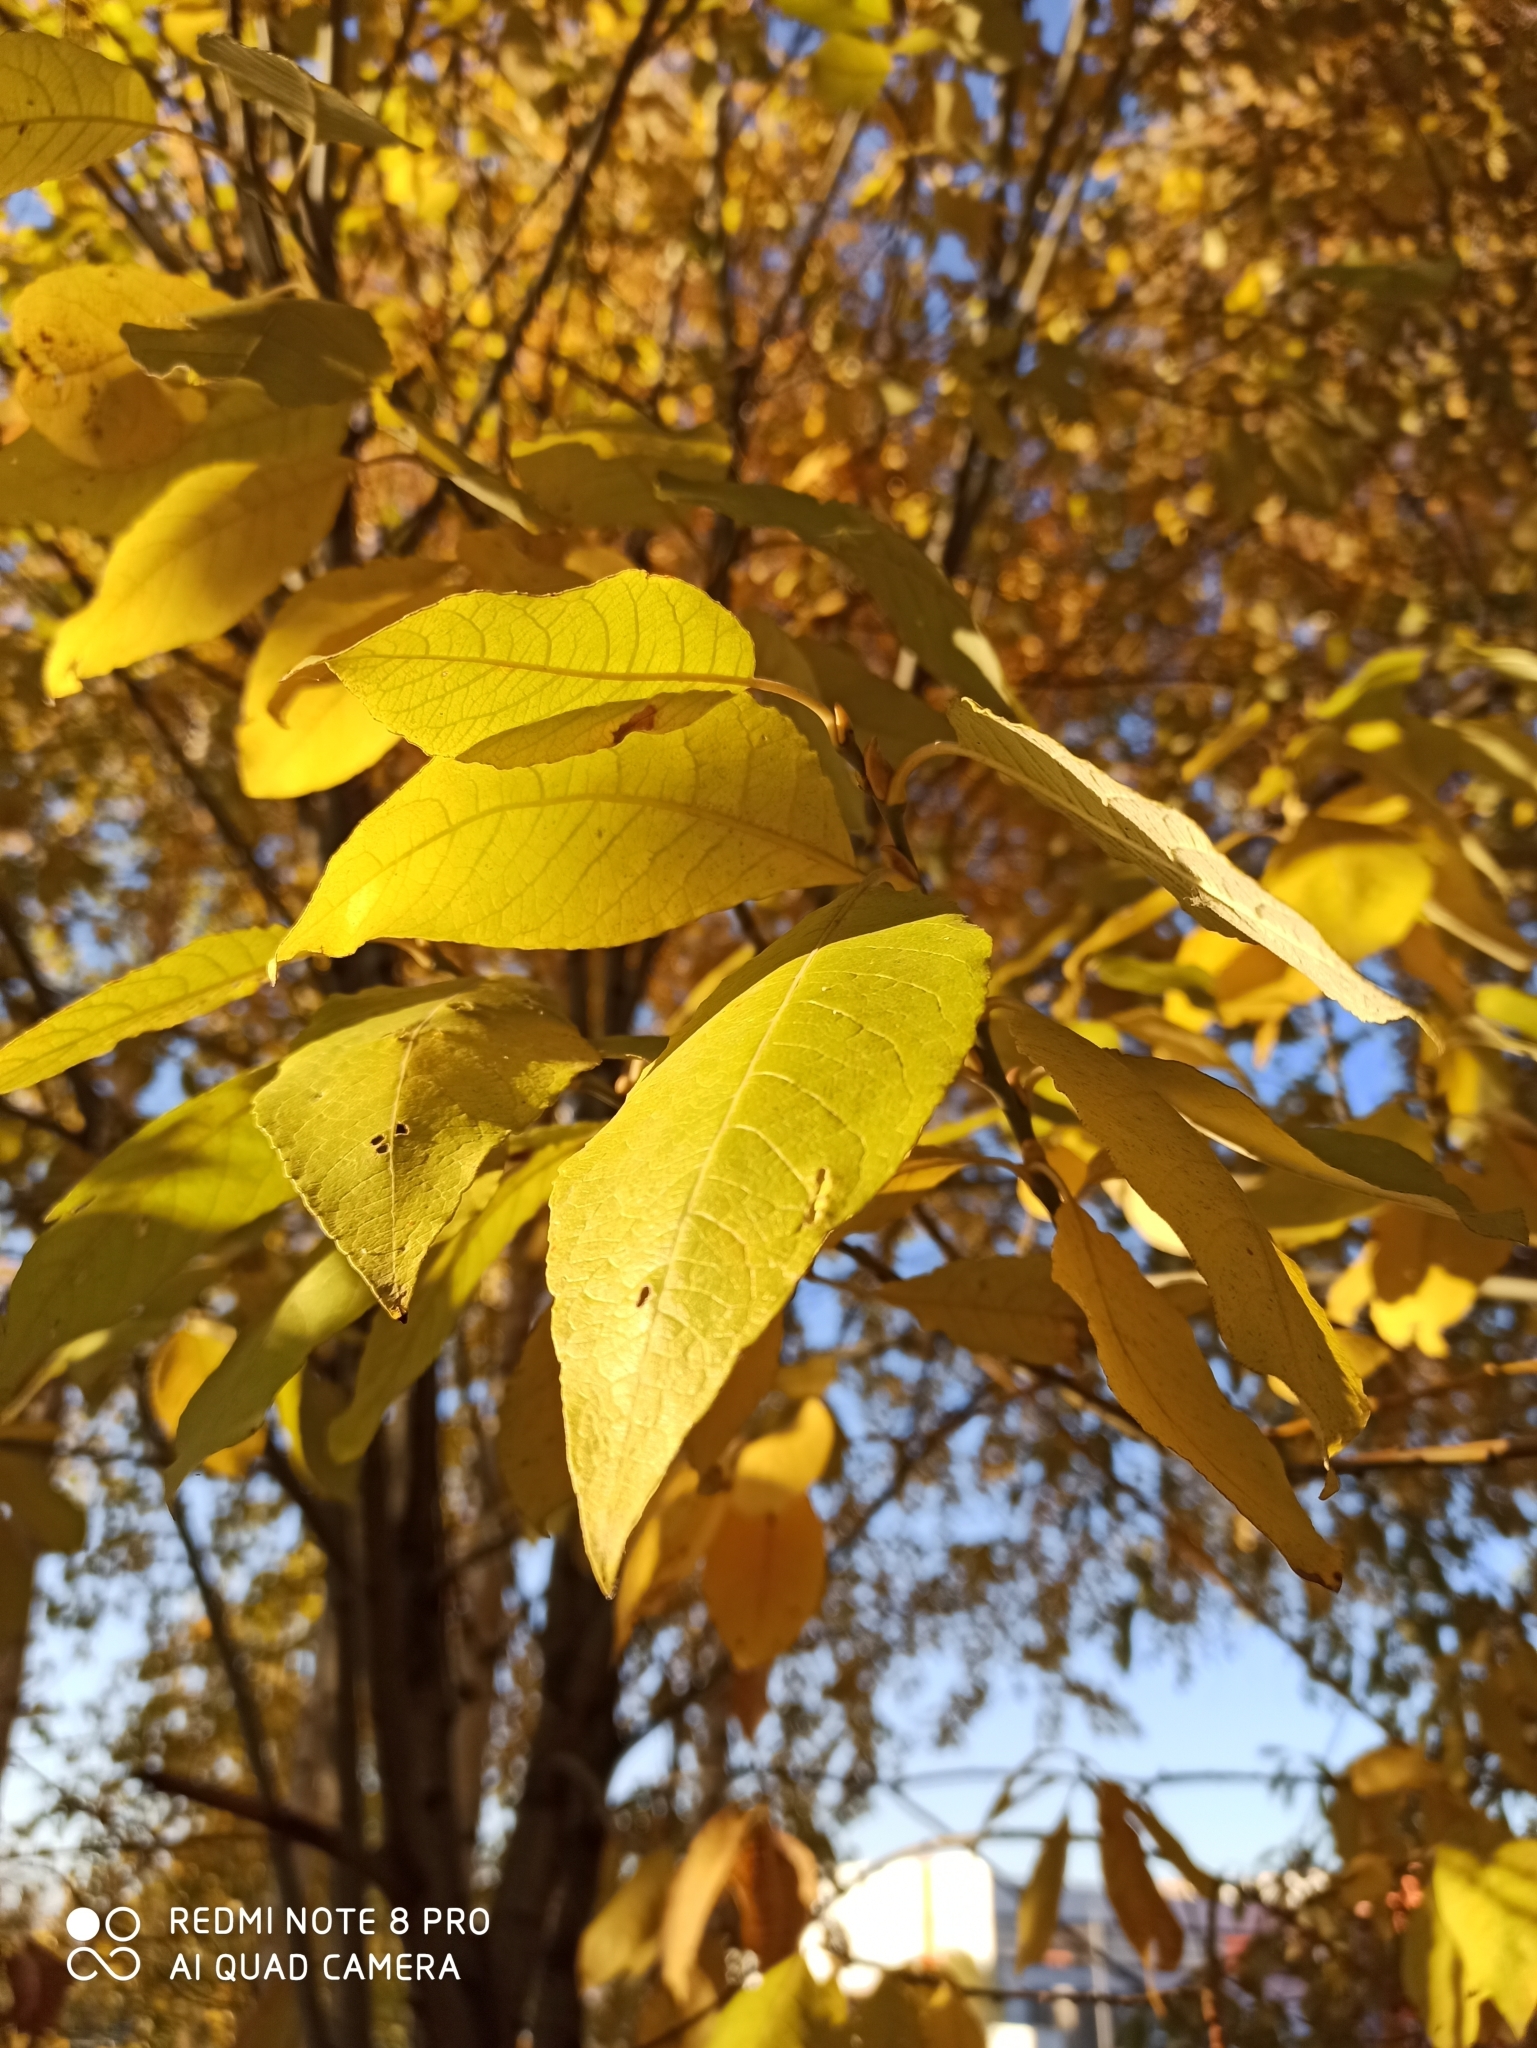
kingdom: Plantae
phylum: Tracheophyta
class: Magnoliopsida
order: Malpighiales
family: Salicaceae
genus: Salix
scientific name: Salix caprea
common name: Goat willow
